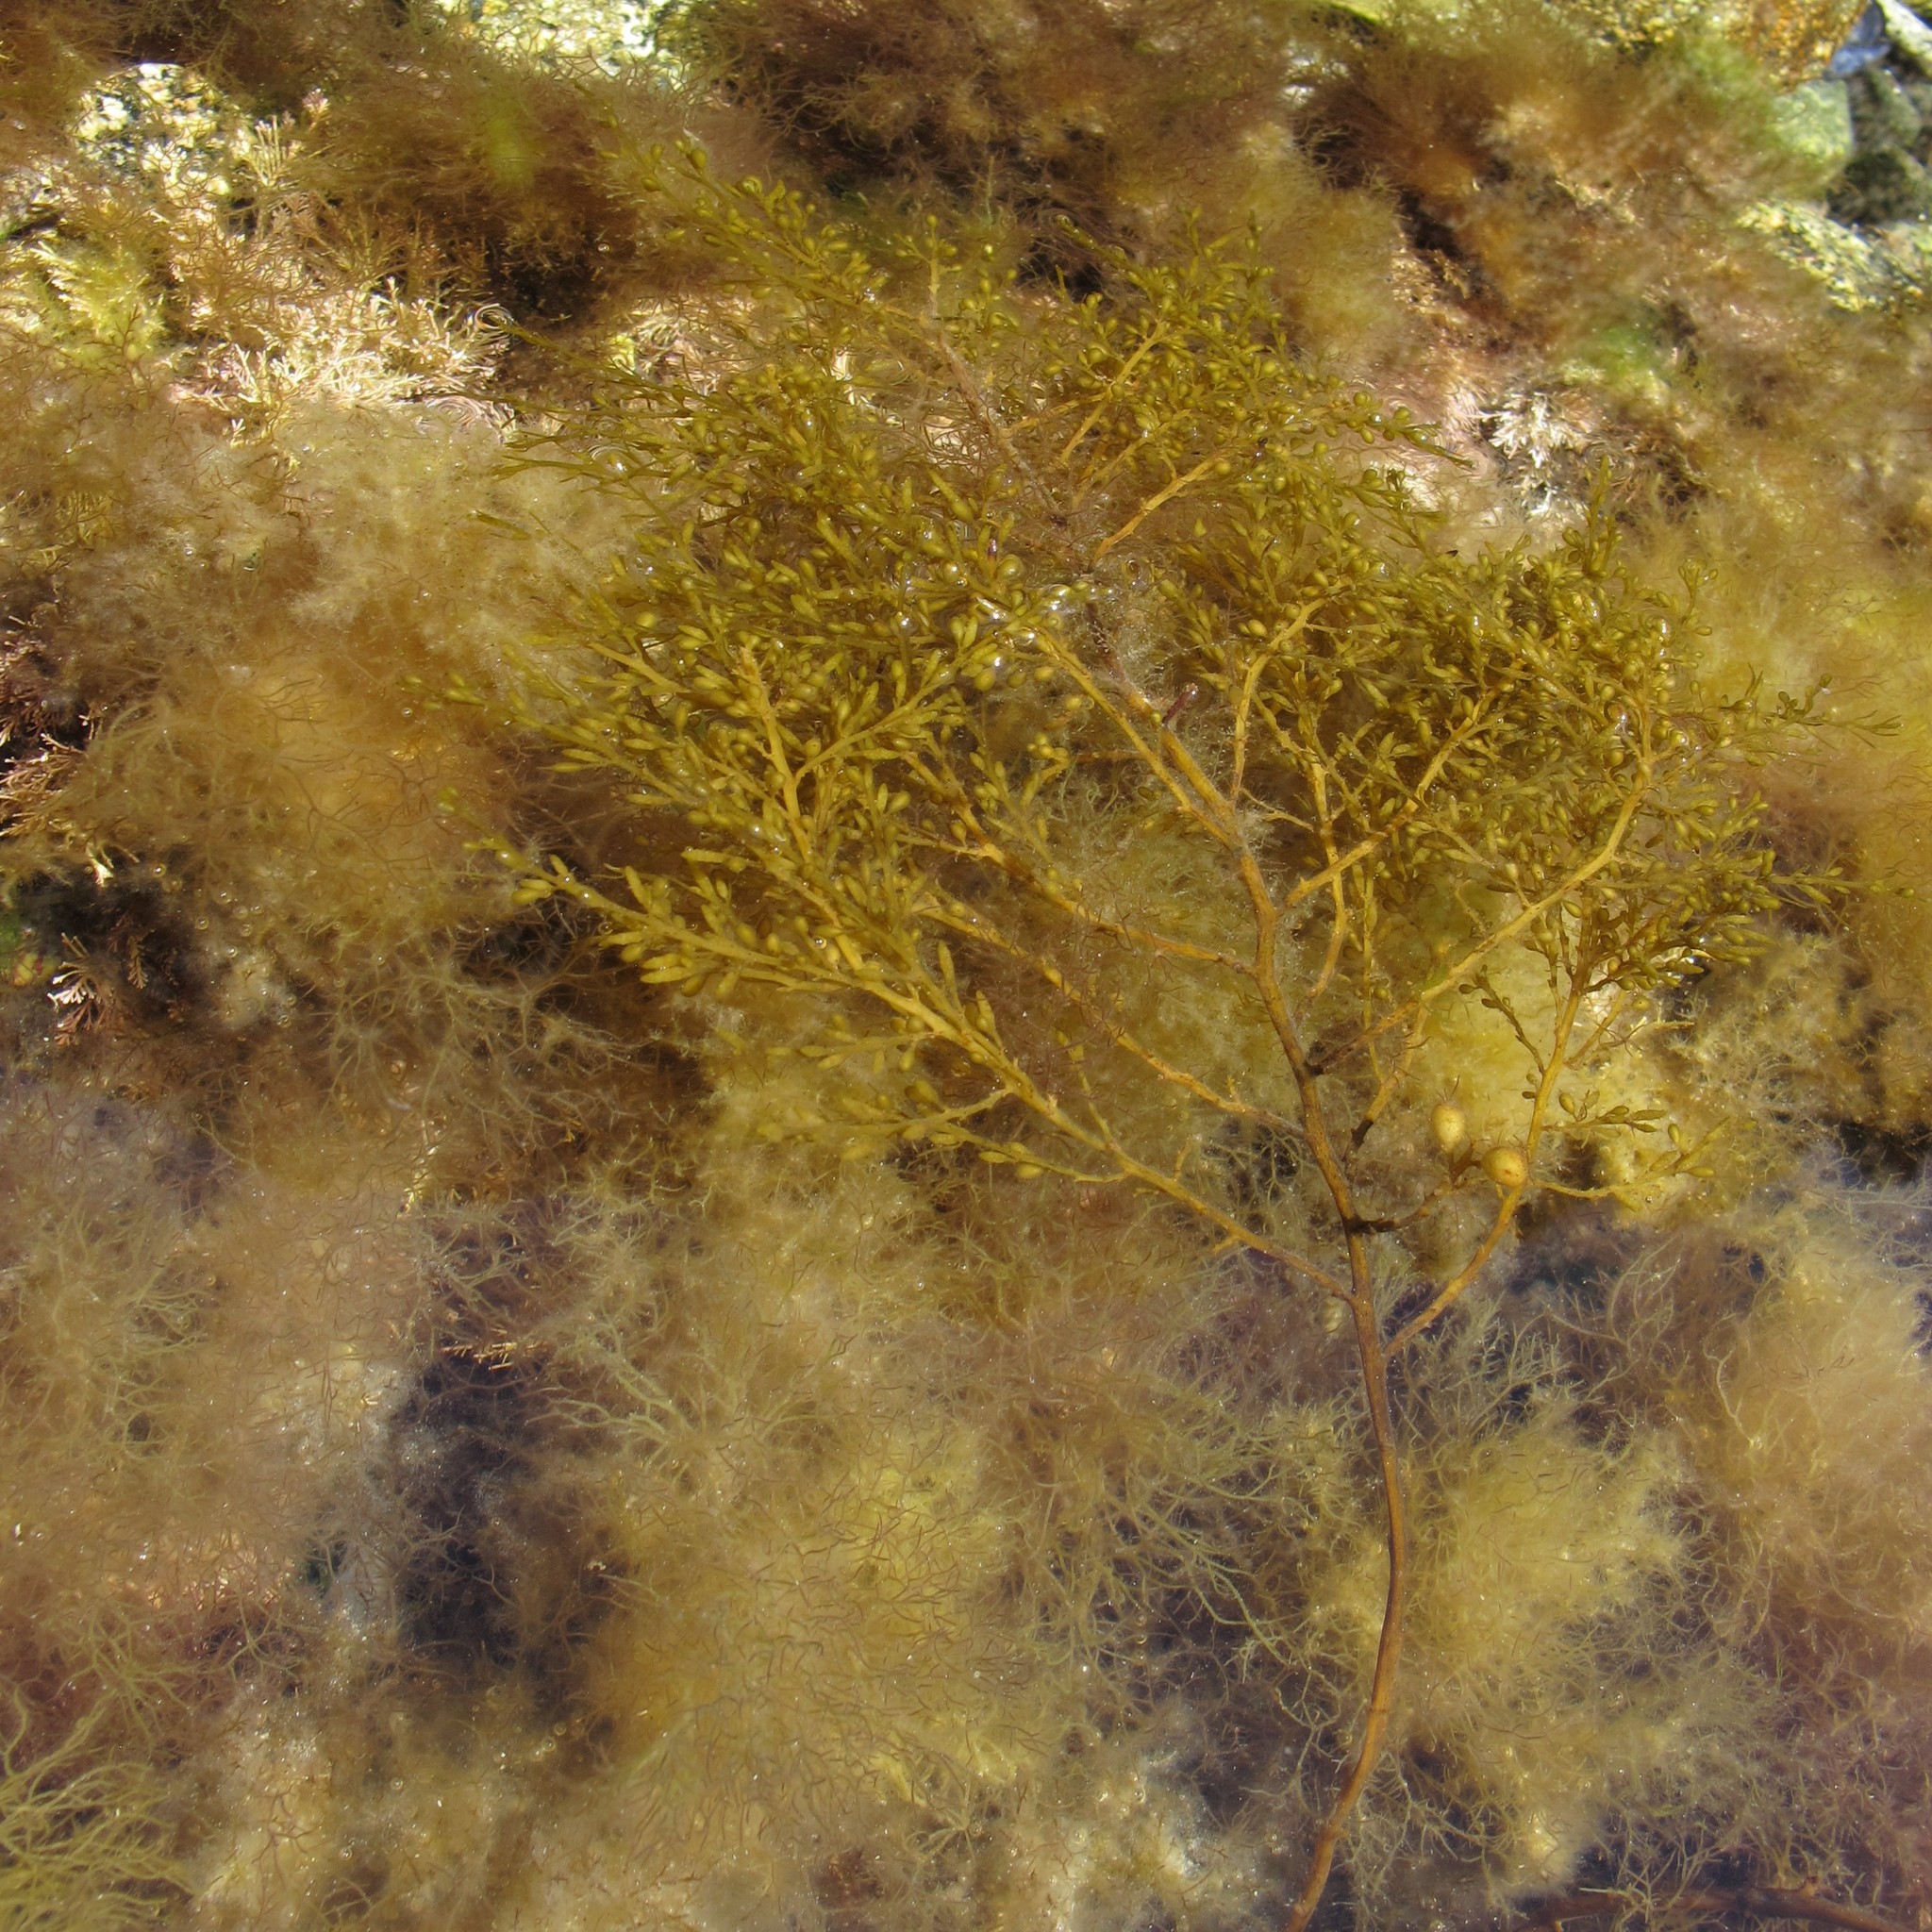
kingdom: Chromista
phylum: Ochrophyta
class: Phaeophyceae
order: Fucales
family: Sargassaceae
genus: Sargassum
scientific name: Sargassum muticum
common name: Japweed
